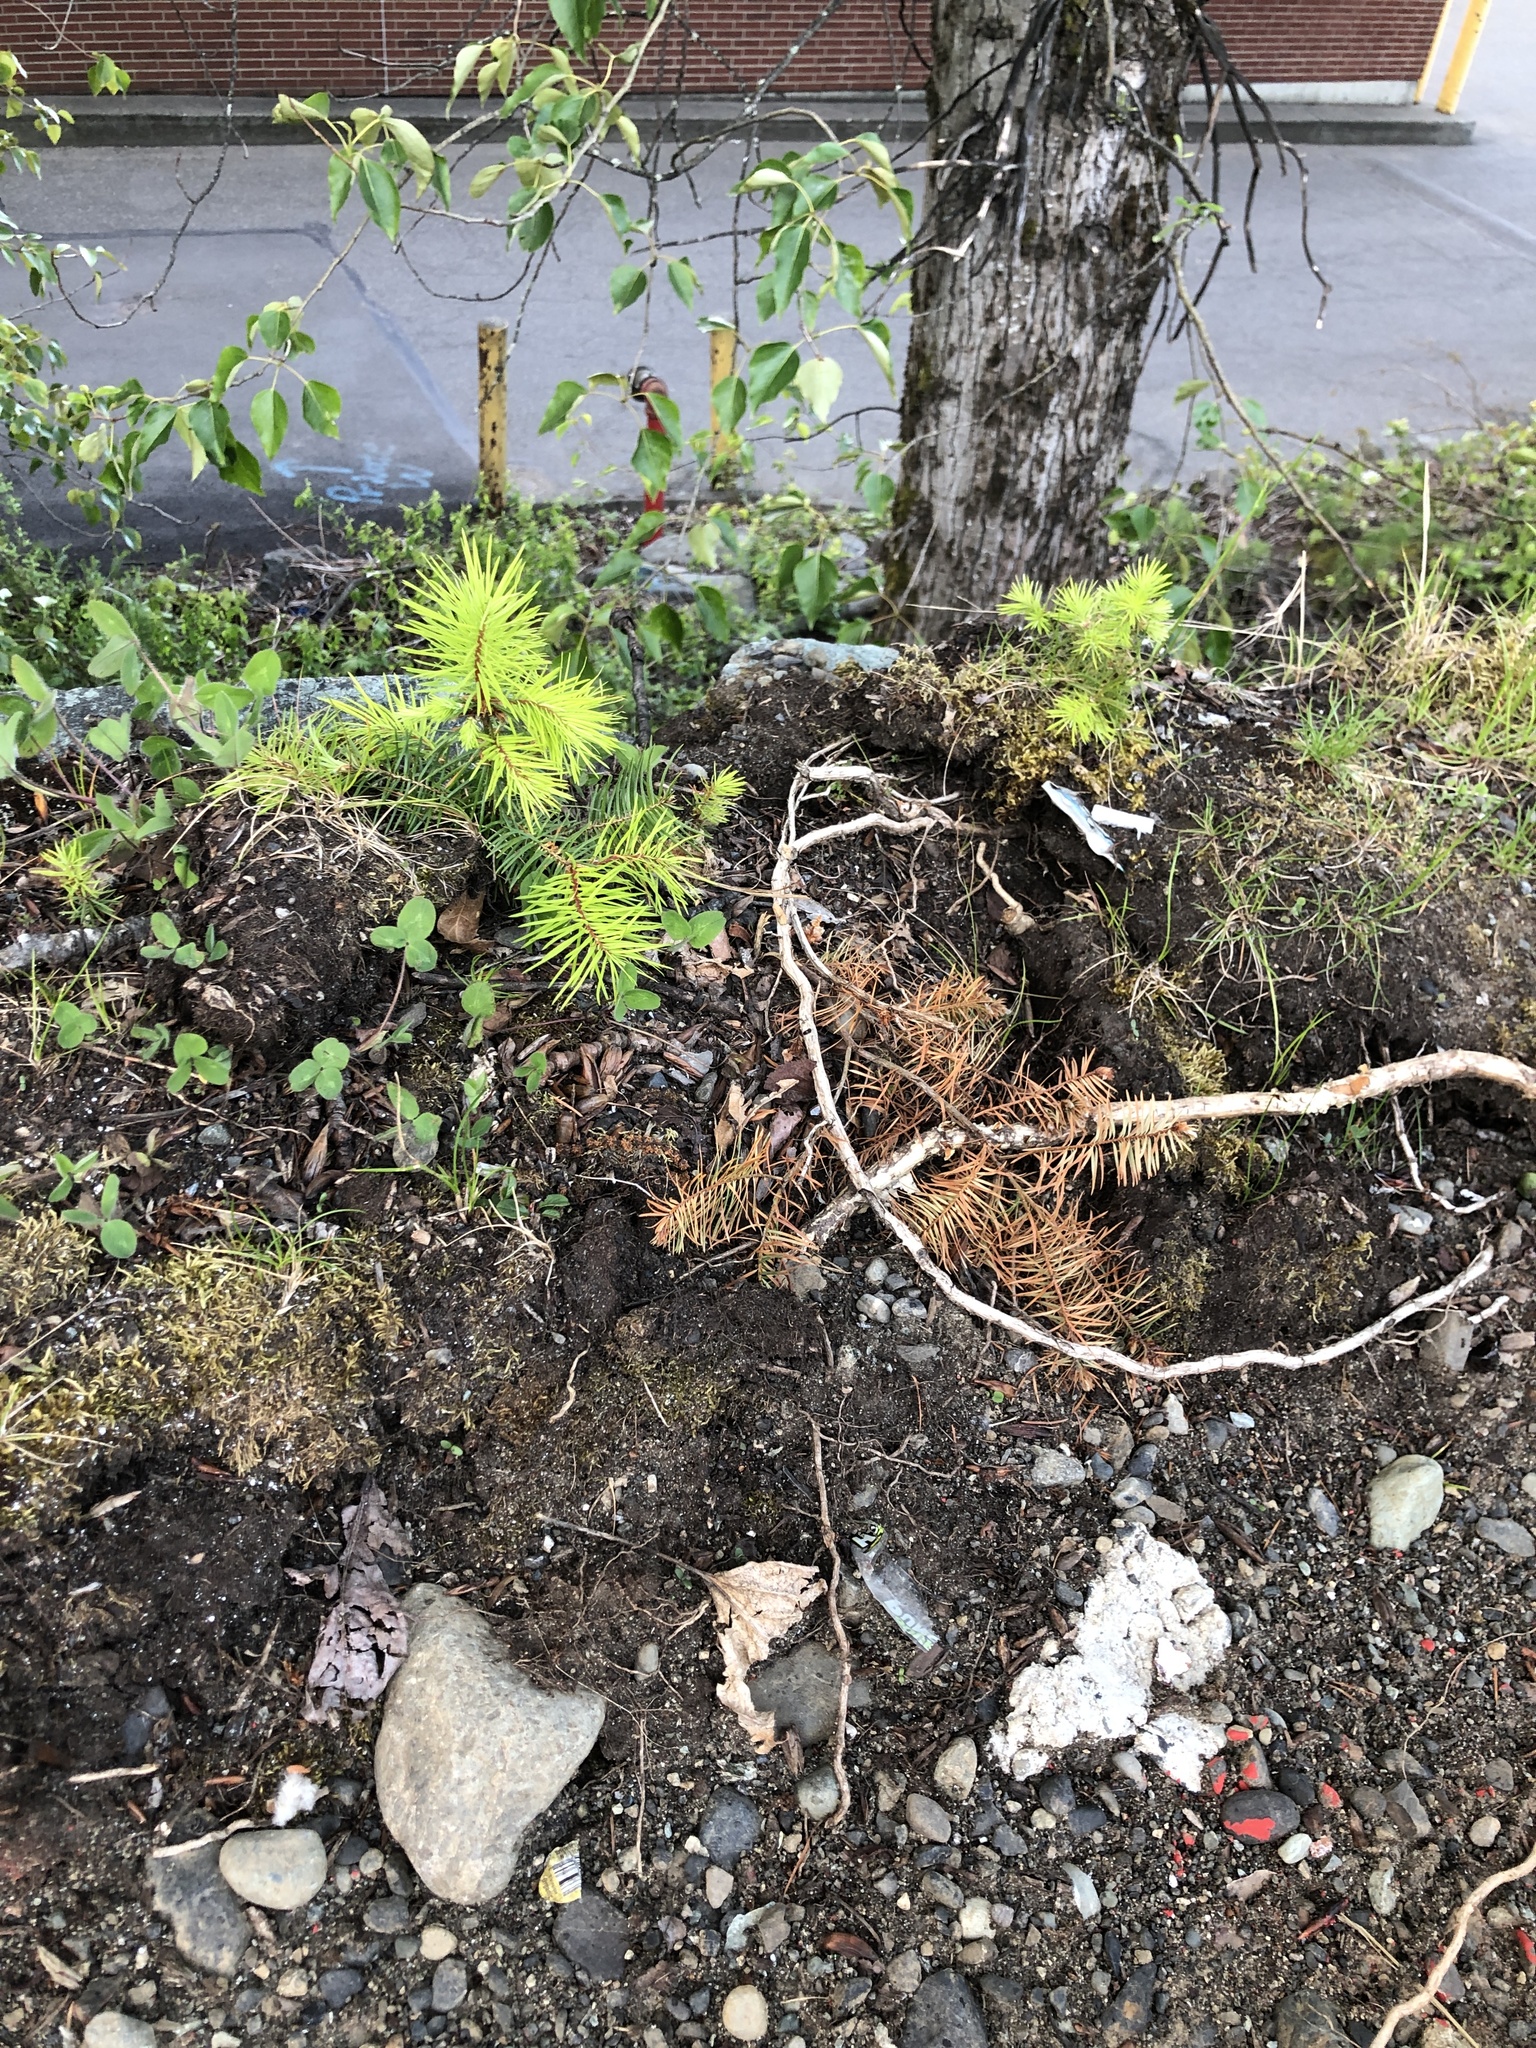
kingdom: Plantae
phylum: Tracheophyta
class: Pinopsida
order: Pinales
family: Pinaceae
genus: Pseudotsuga
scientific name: Pseudotsuga menziesii
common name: Douglas fir
